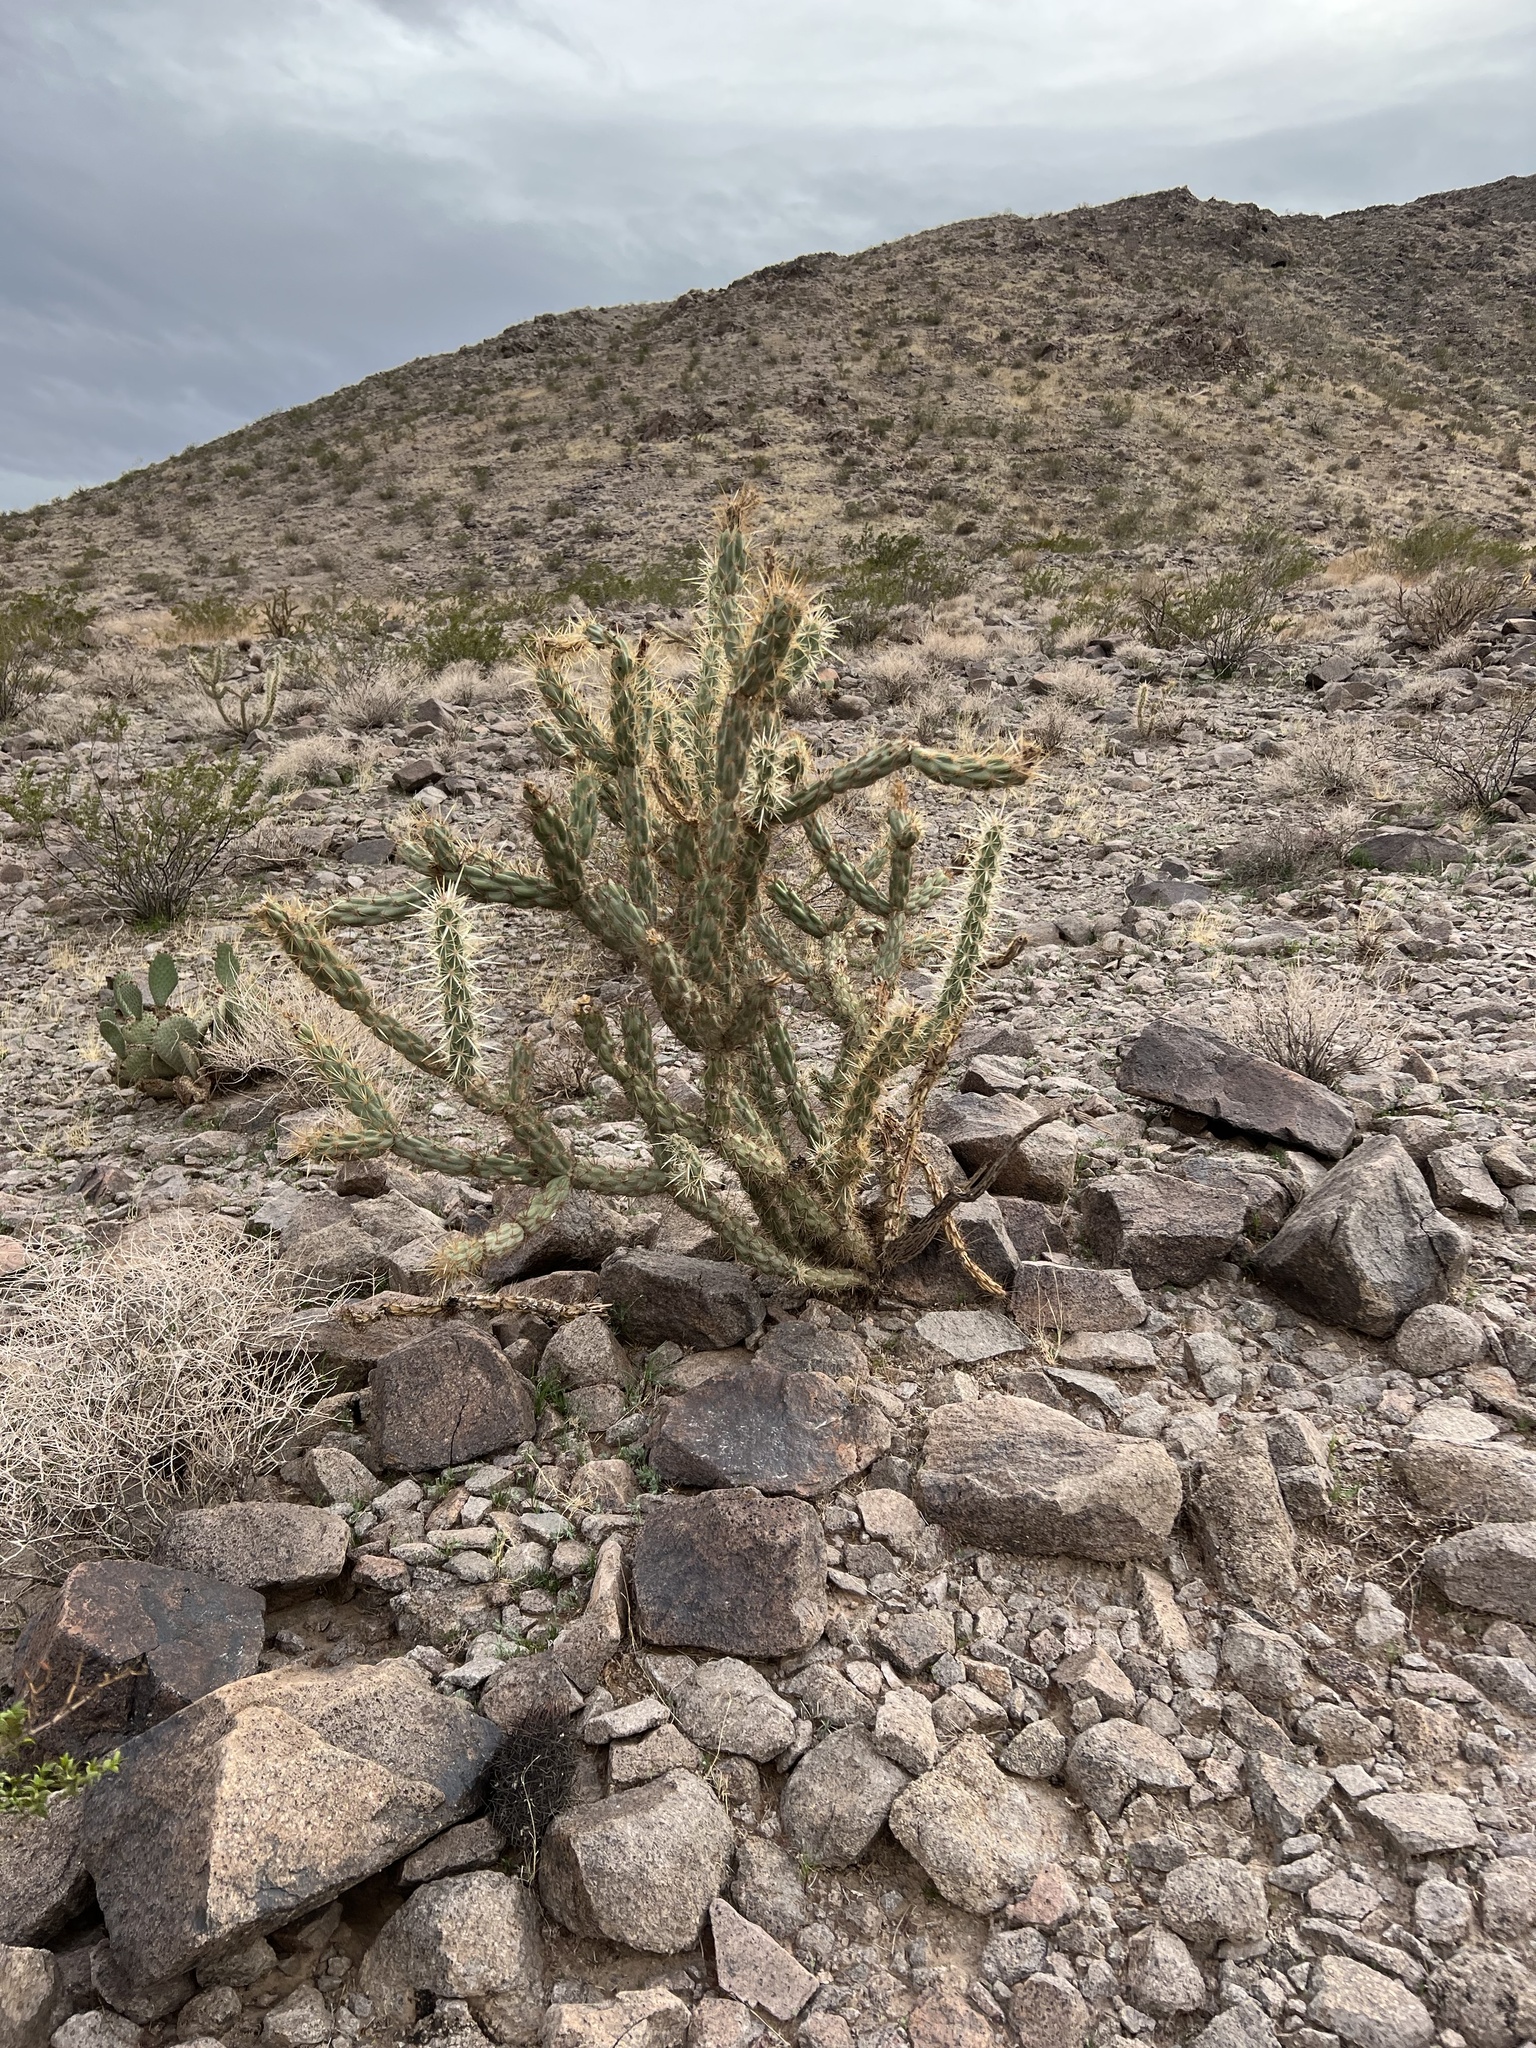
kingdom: Plantae
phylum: Tracheophyta
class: Magnoliopsida
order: Caryophyllales
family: Cactaceae
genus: Cylindropuntia
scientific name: Cylindropuntia acanthocarpa
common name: Buckhorn cholla
